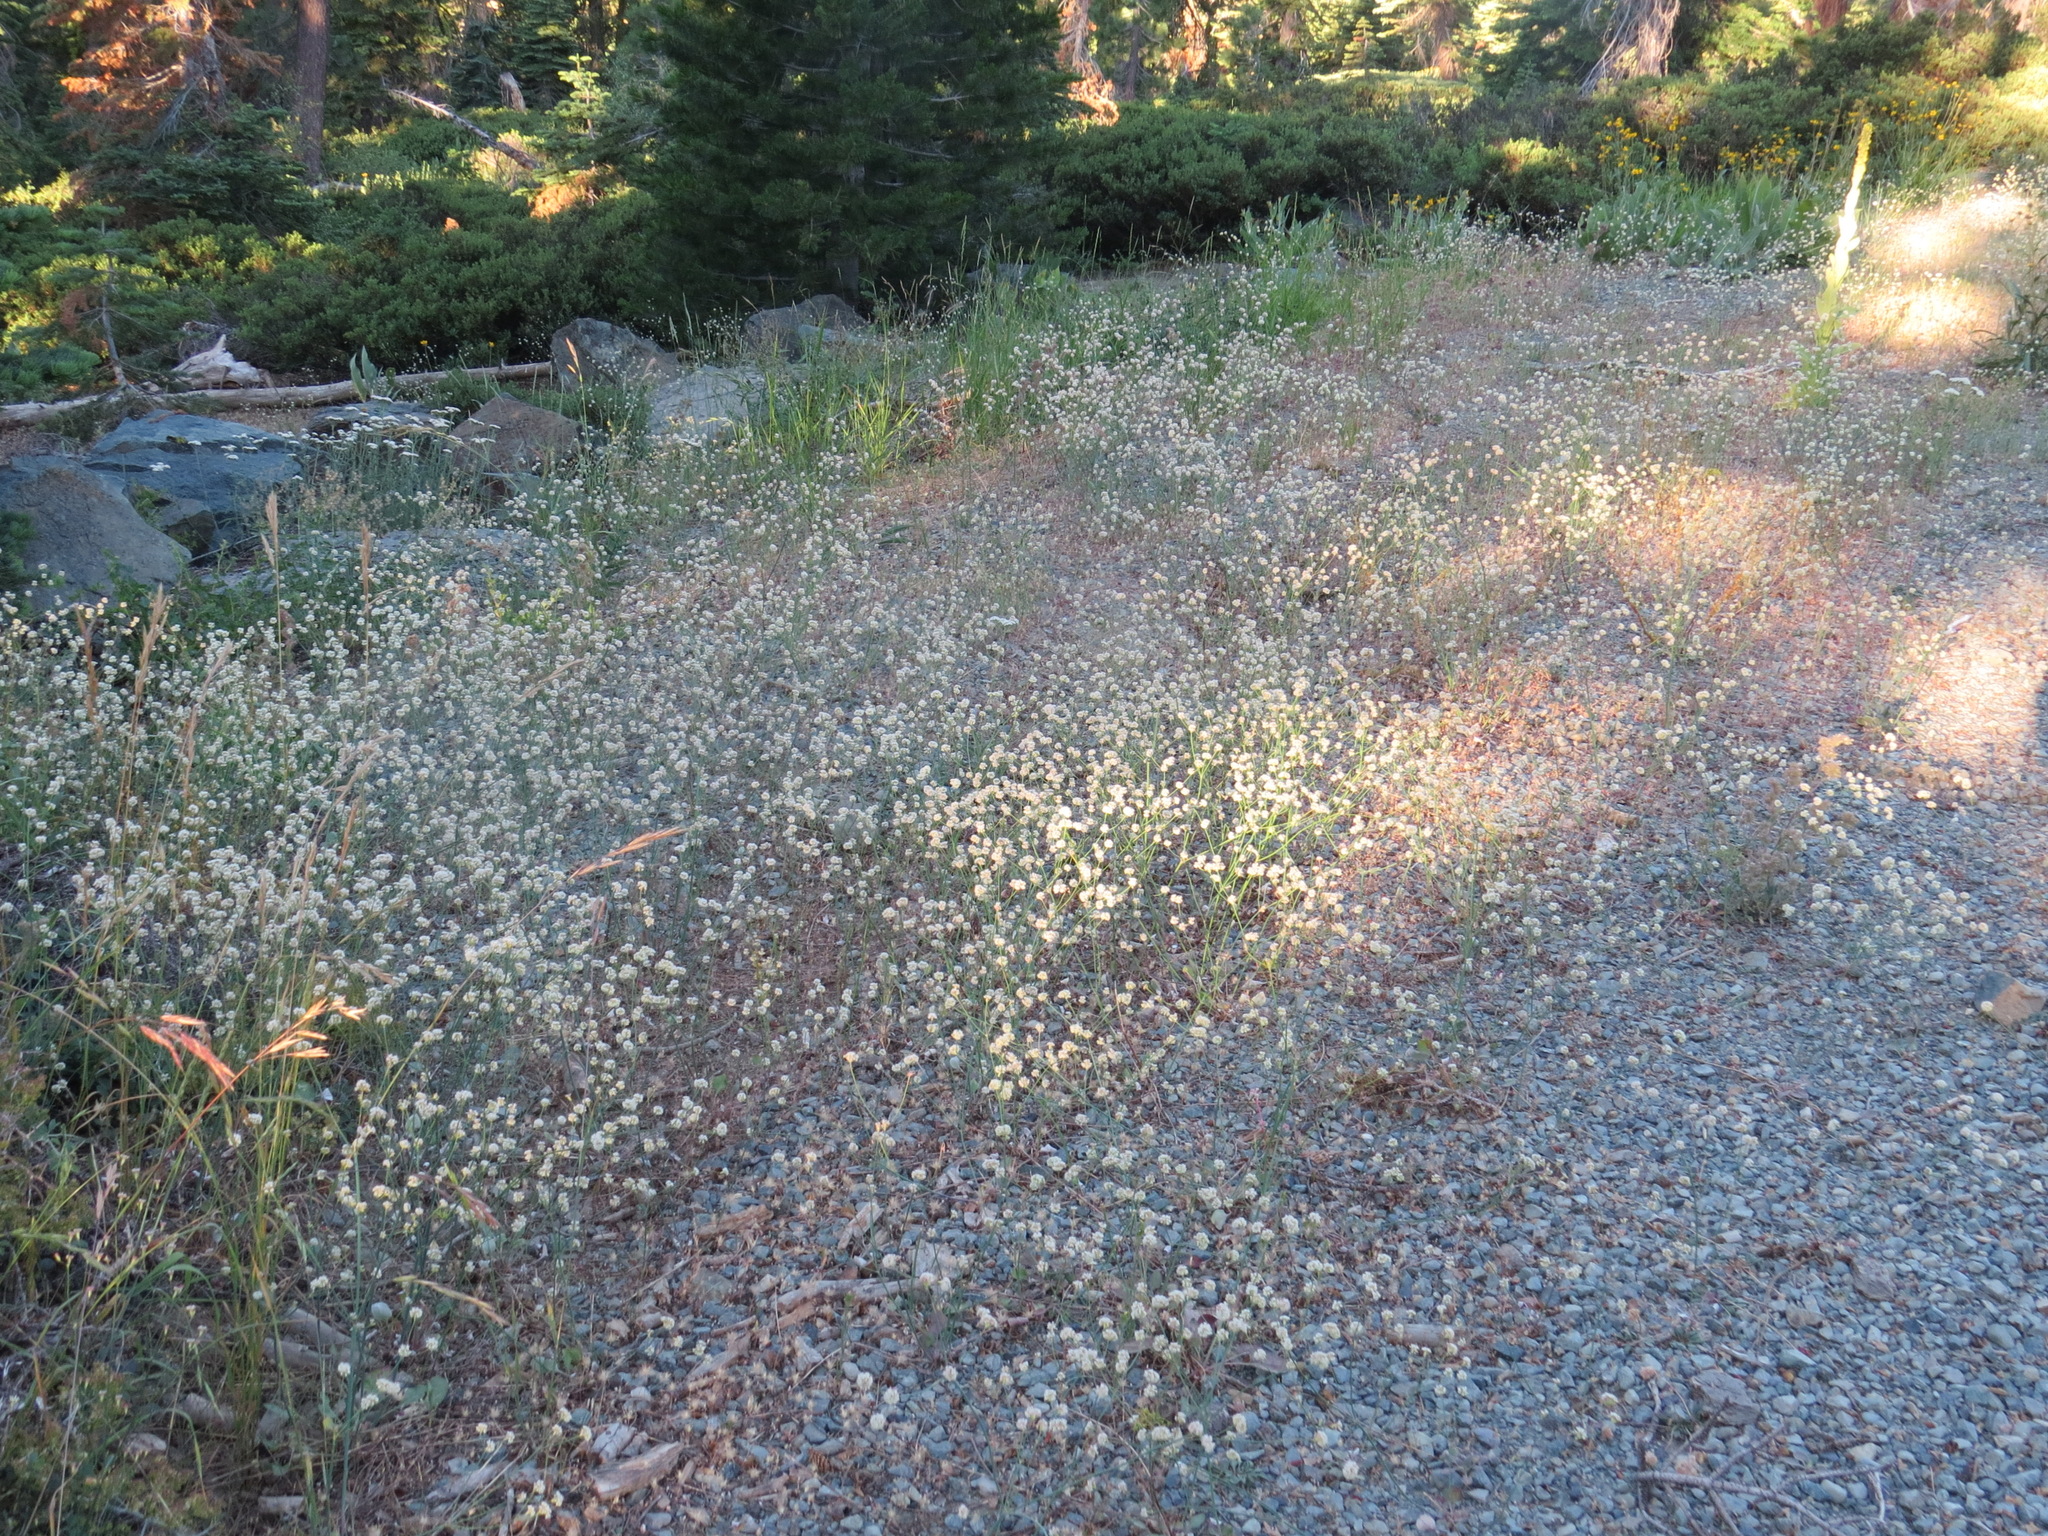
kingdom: Plantae
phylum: Tracheophyta
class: Magnoliopsida
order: Caryophyllales
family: Polygonaceae
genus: Eriogonum
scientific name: Eriogonum nudum
